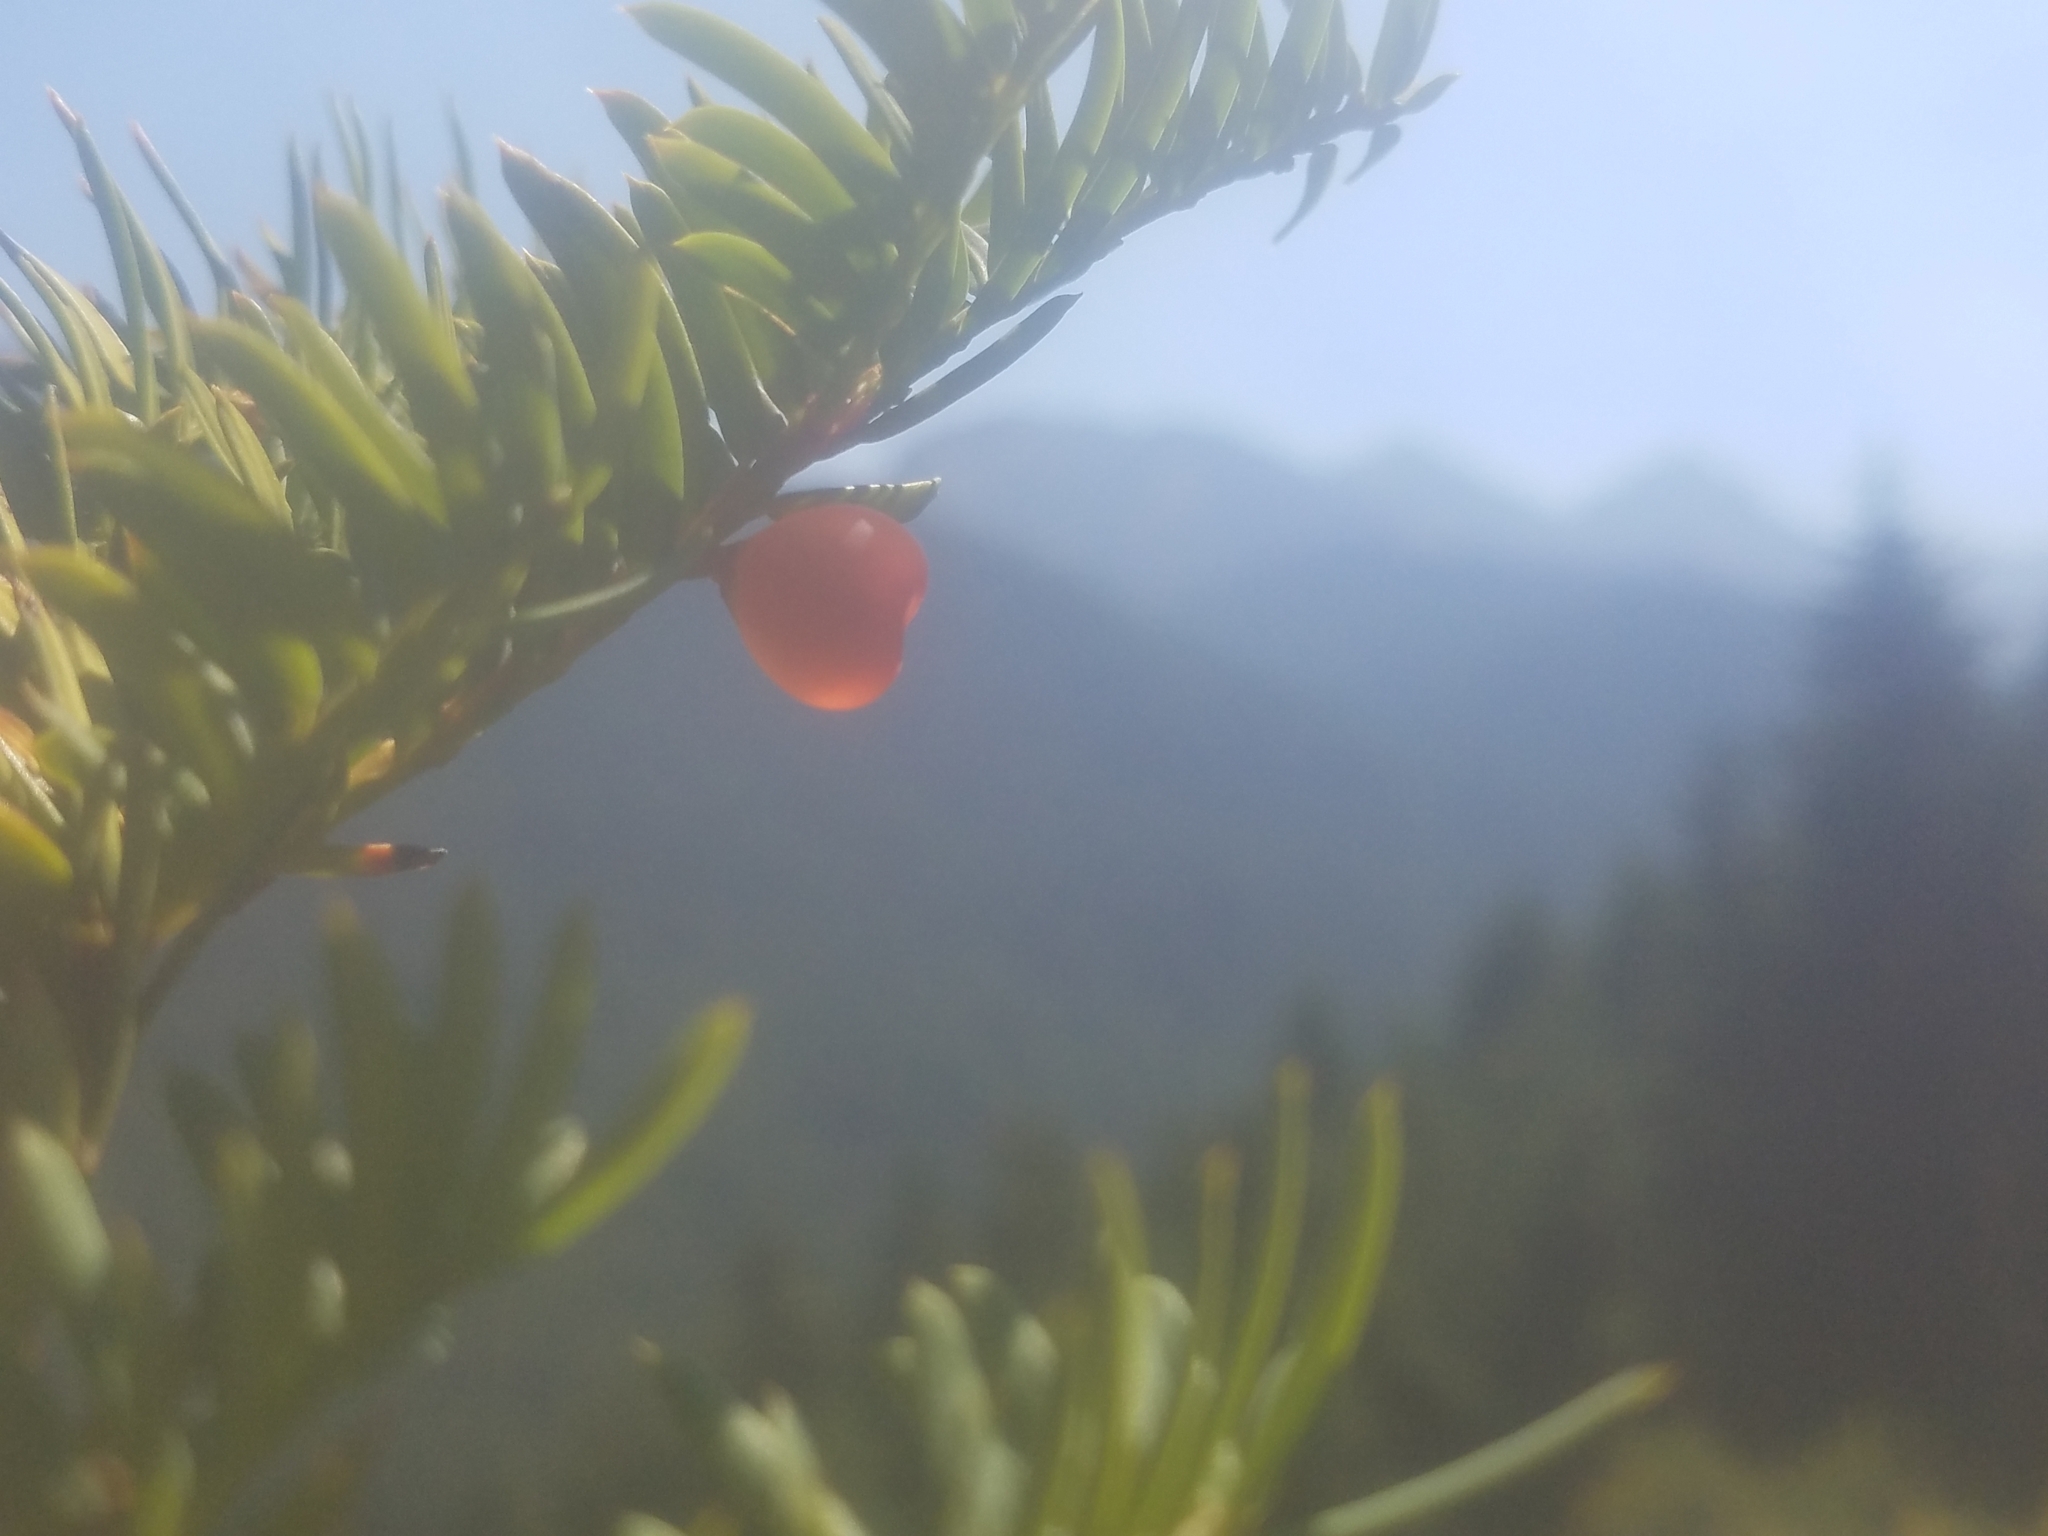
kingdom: Plantae
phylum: Tracheophyta
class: Pinopsida
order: Pinales
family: Taxaceae
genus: Taxus
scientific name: Taxus brevifolia
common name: Pacific yew
